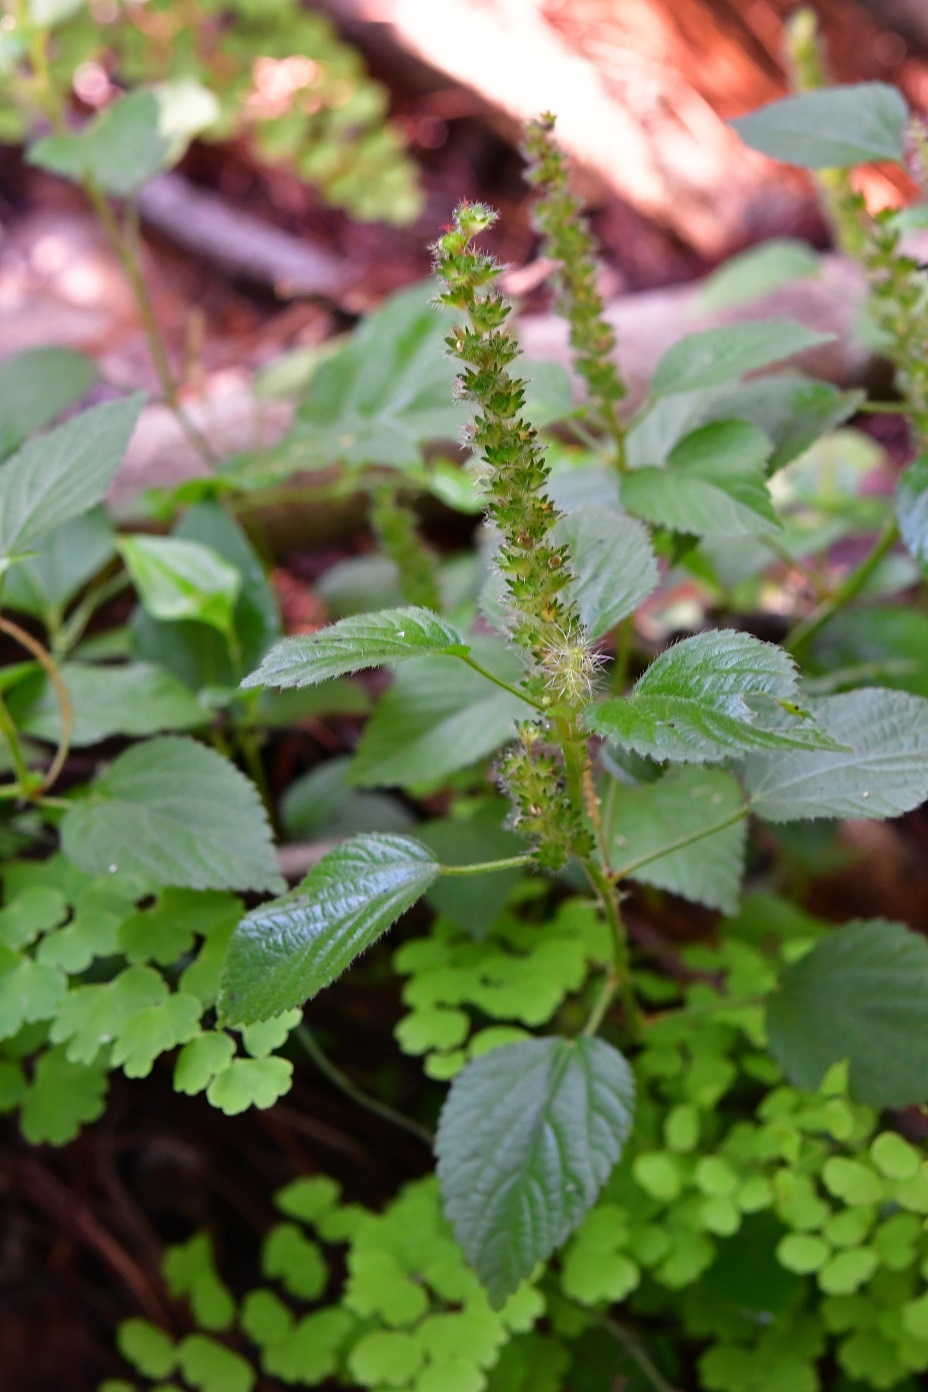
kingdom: Plantae
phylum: Tracheophyta
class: Magnoliopsida
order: Malpighiales
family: Euphorbiaceae
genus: Acalypha
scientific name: Acalypha phleoides
